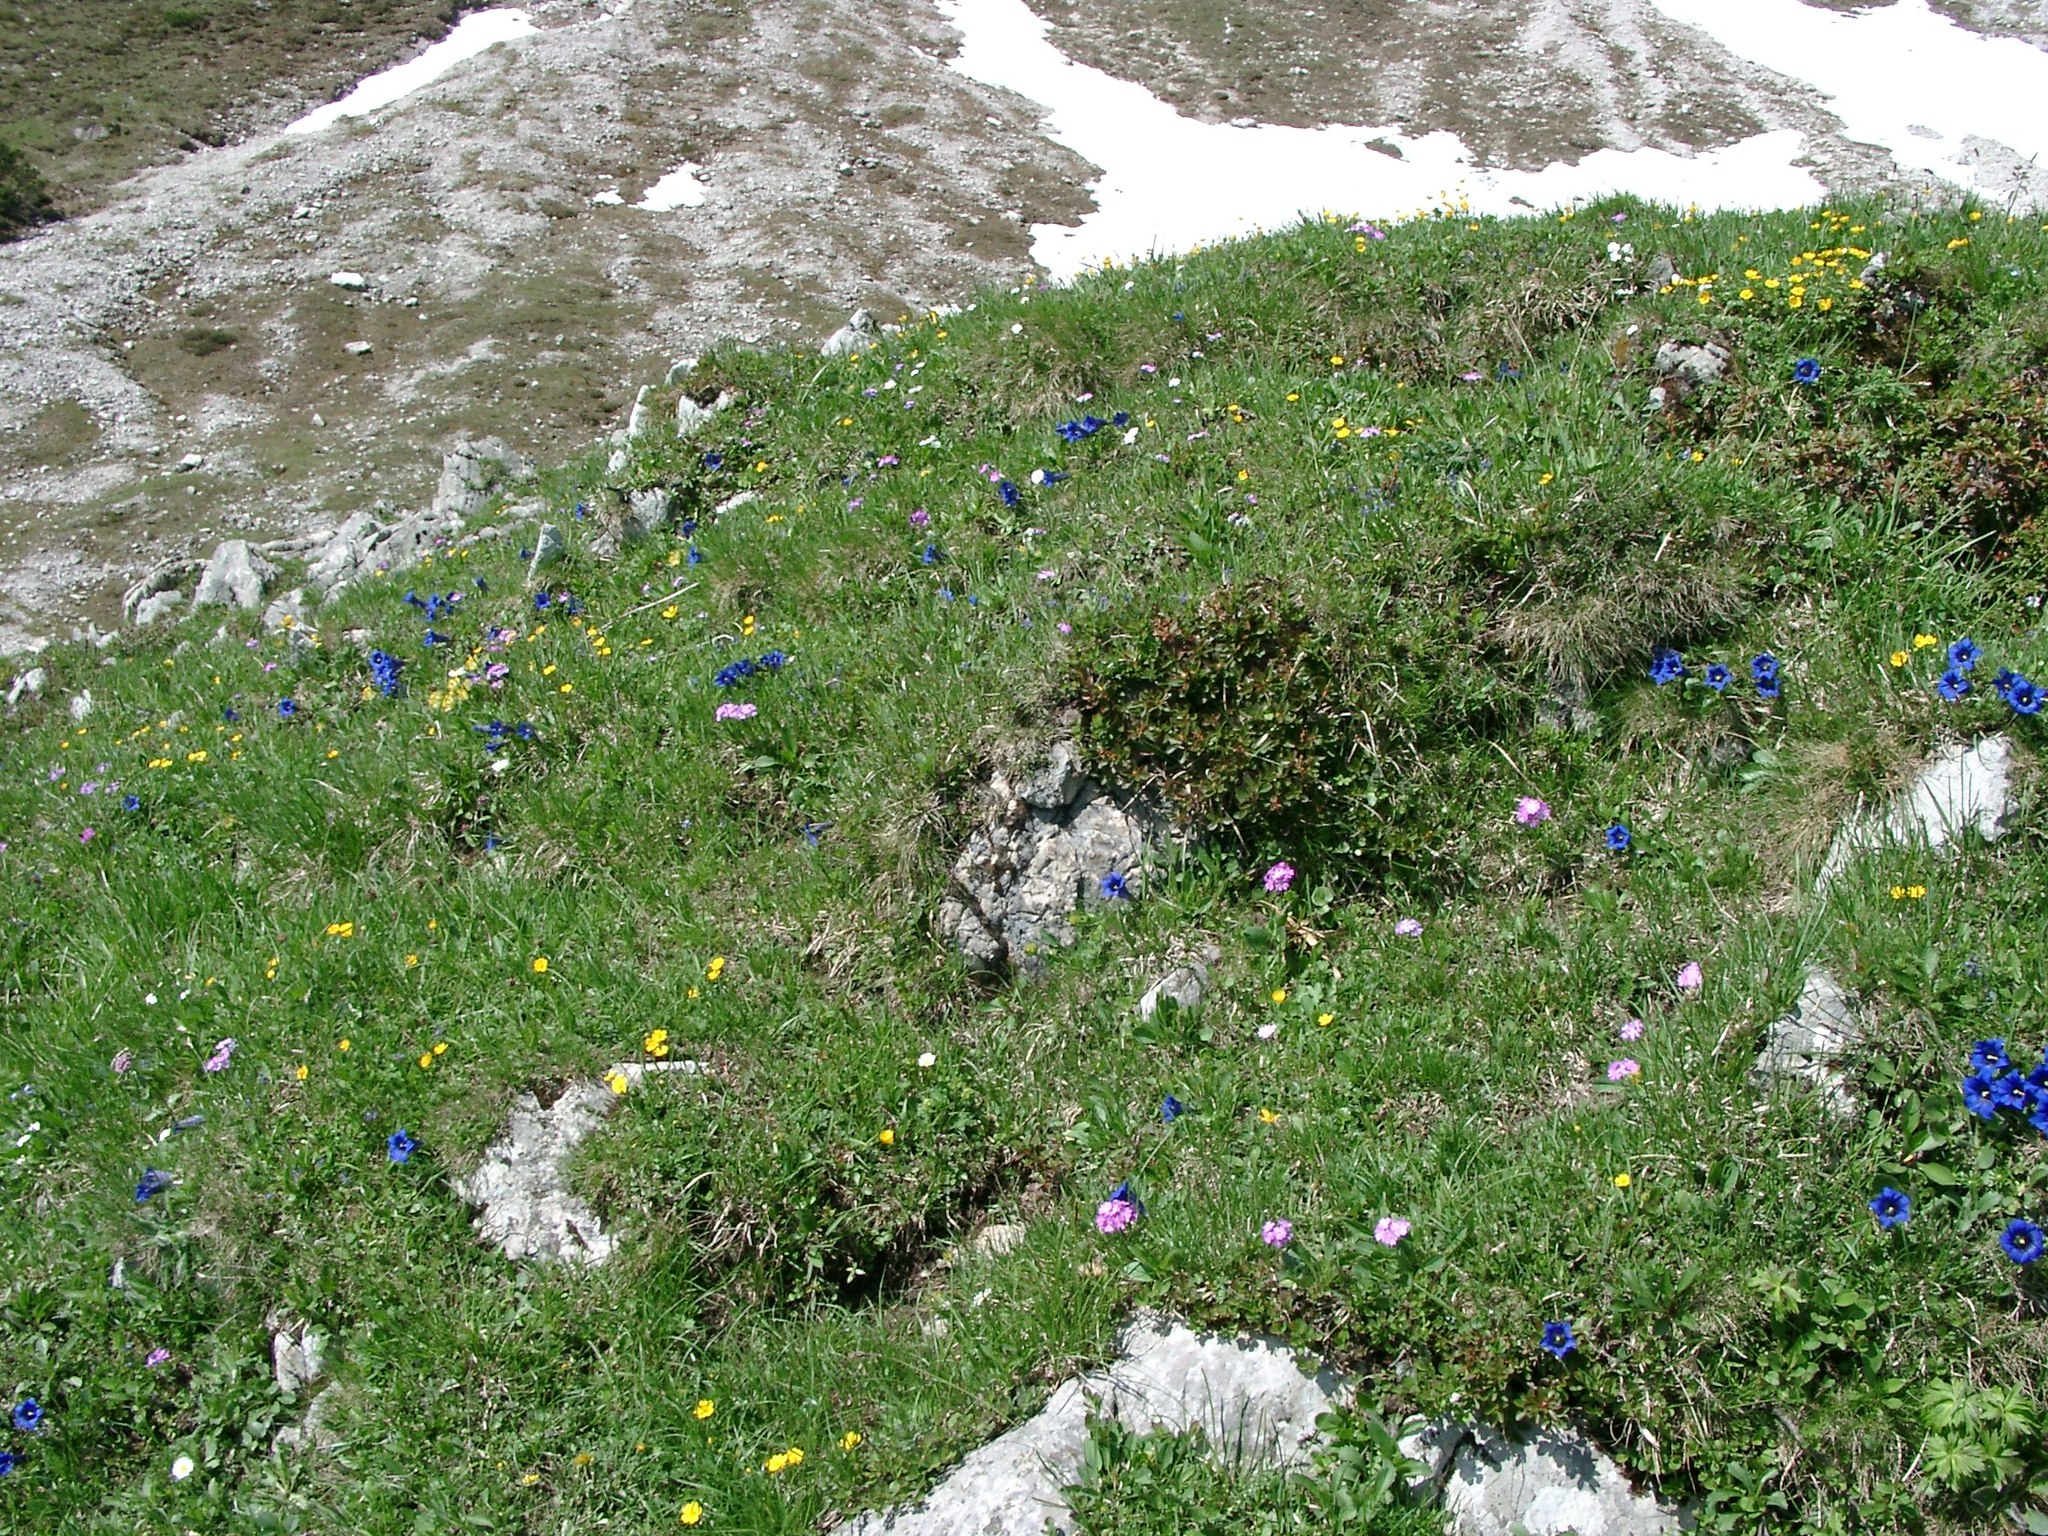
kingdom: Plantae
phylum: Tracheophyta
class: Magnoliopsida
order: Gentianales
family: Gentianaceae
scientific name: Gentianaceae
